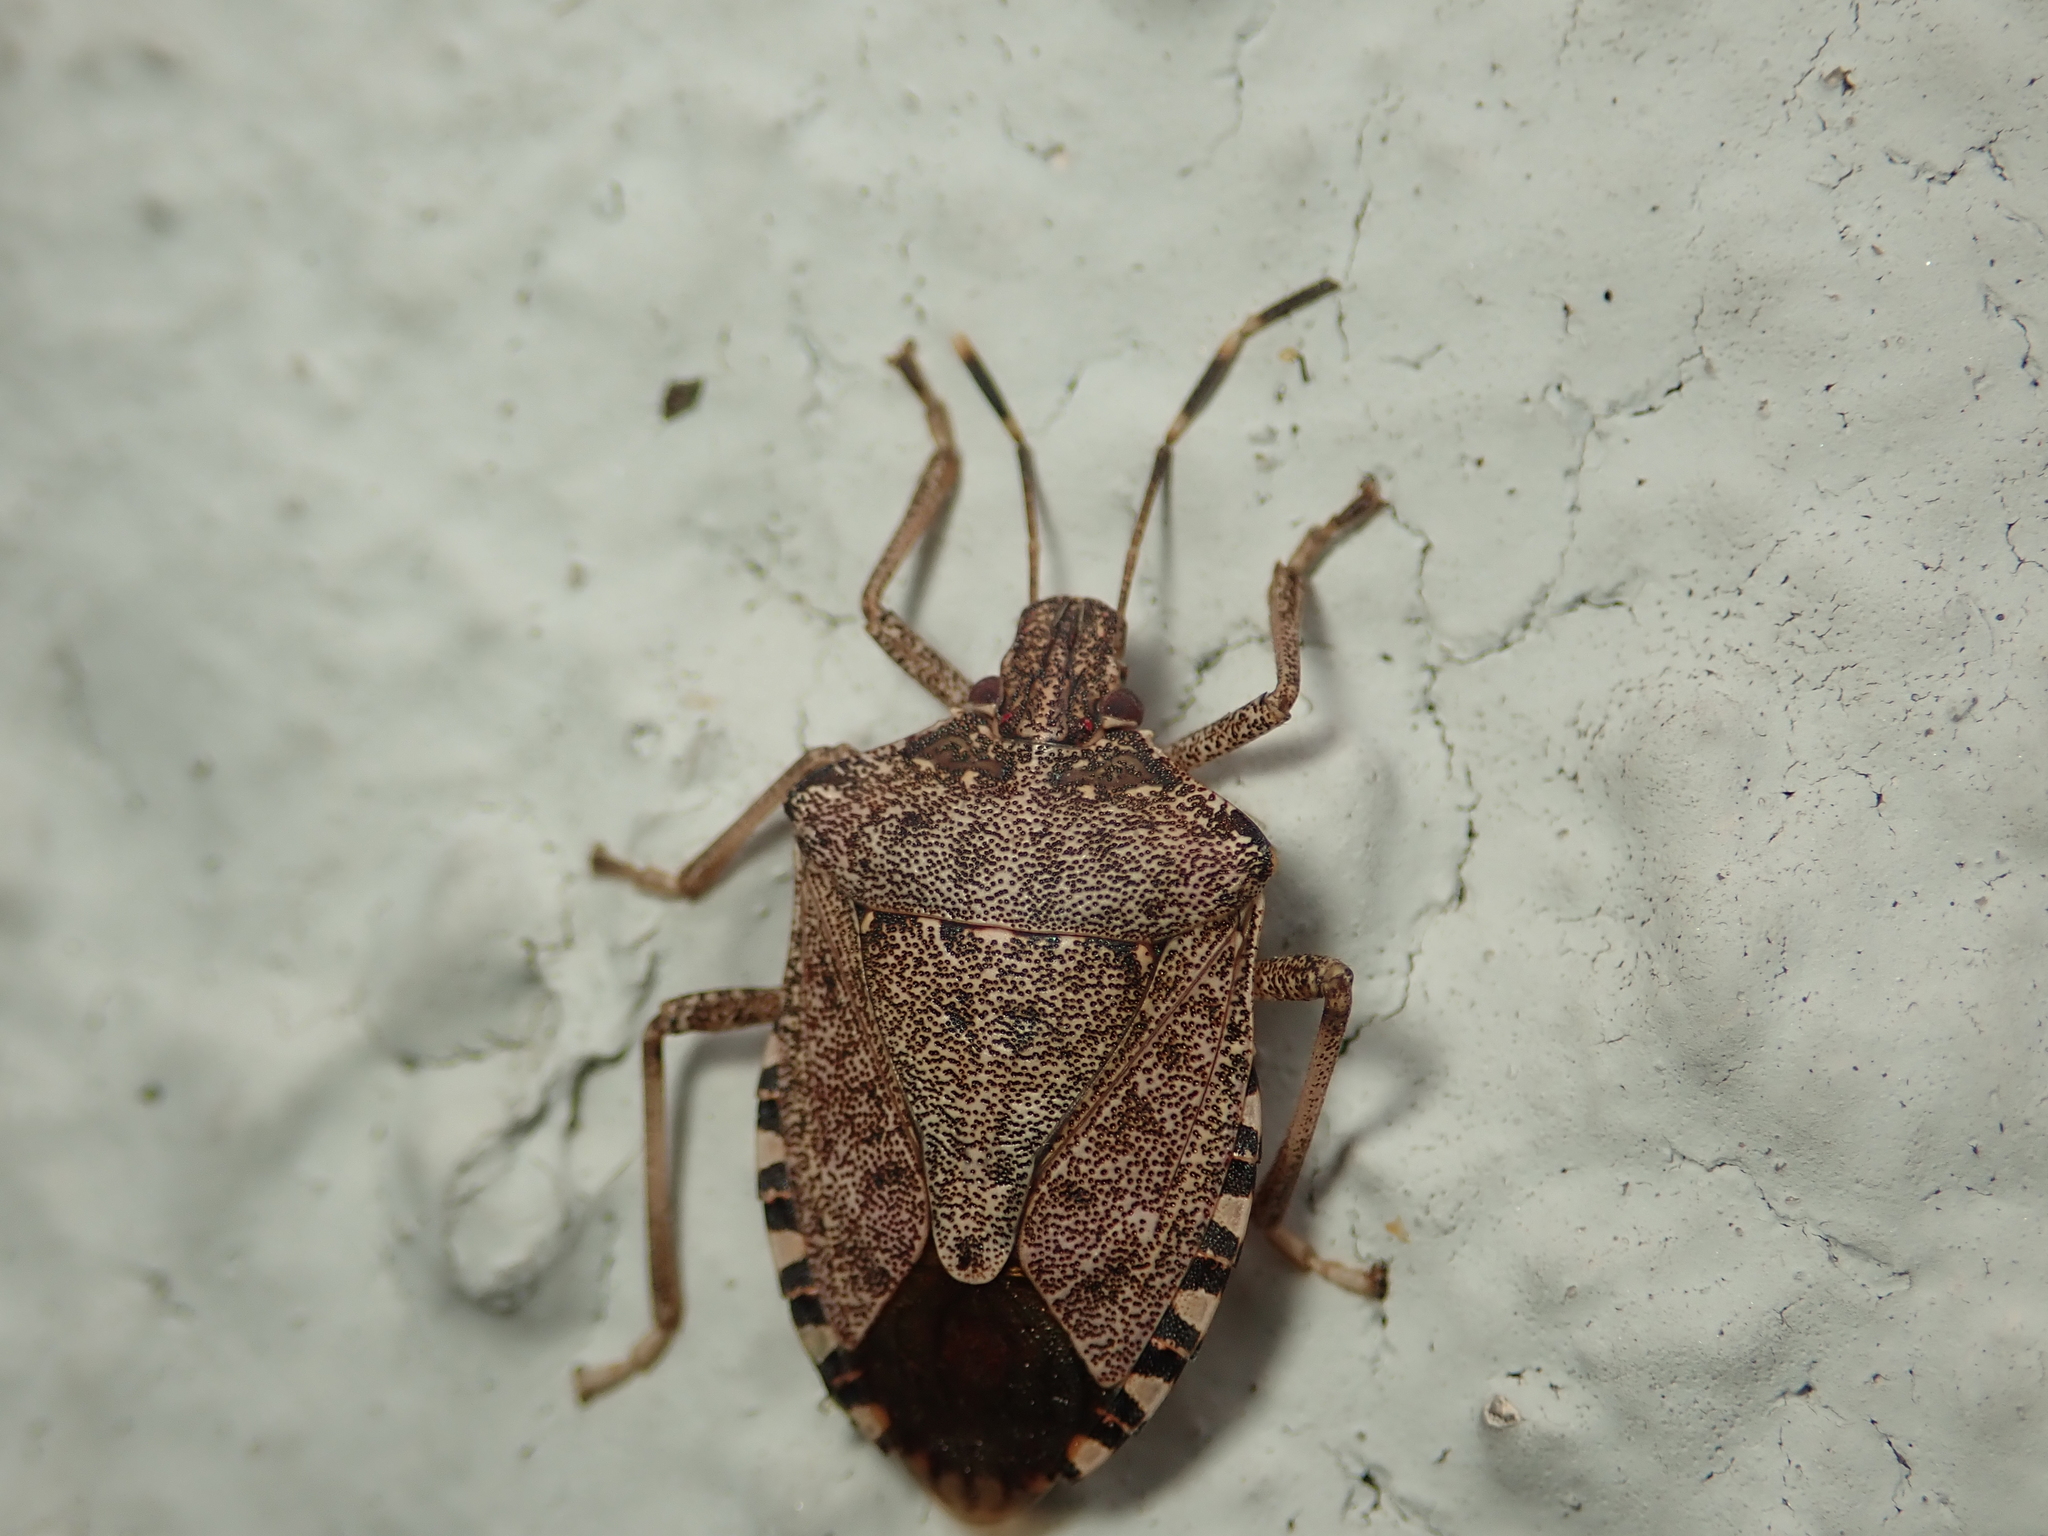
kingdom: Animalia
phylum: Arthropoda
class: Insecta
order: Hemiptera
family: Pentatomidae
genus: Halyomorpha
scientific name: Halyomorpha halys
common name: Brown marmorated stink bug
